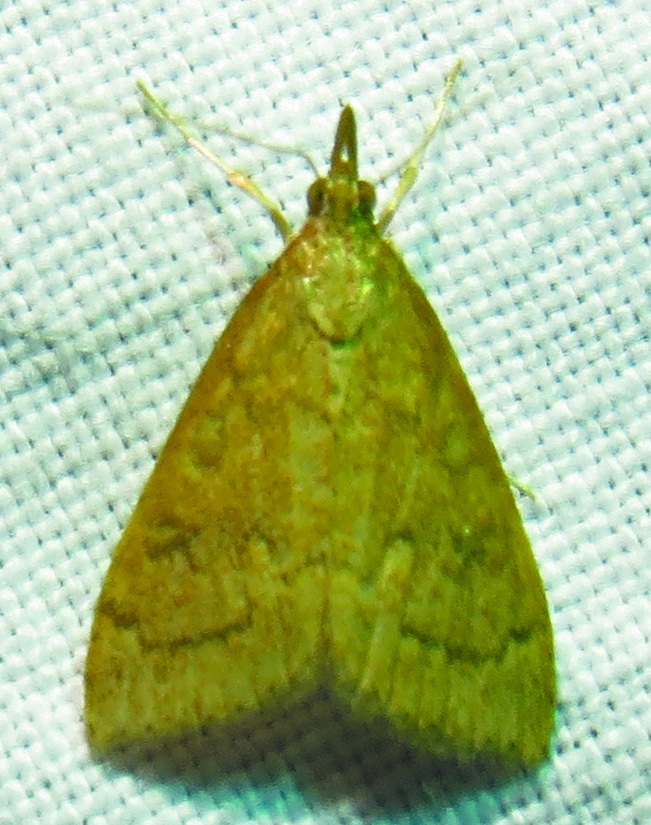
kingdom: Animalia
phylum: Arthropoda
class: Insecta
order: Lepidoptera
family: Crambidae
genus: Udea
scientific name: Udea rubigalis
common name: Celery leaftier moth
